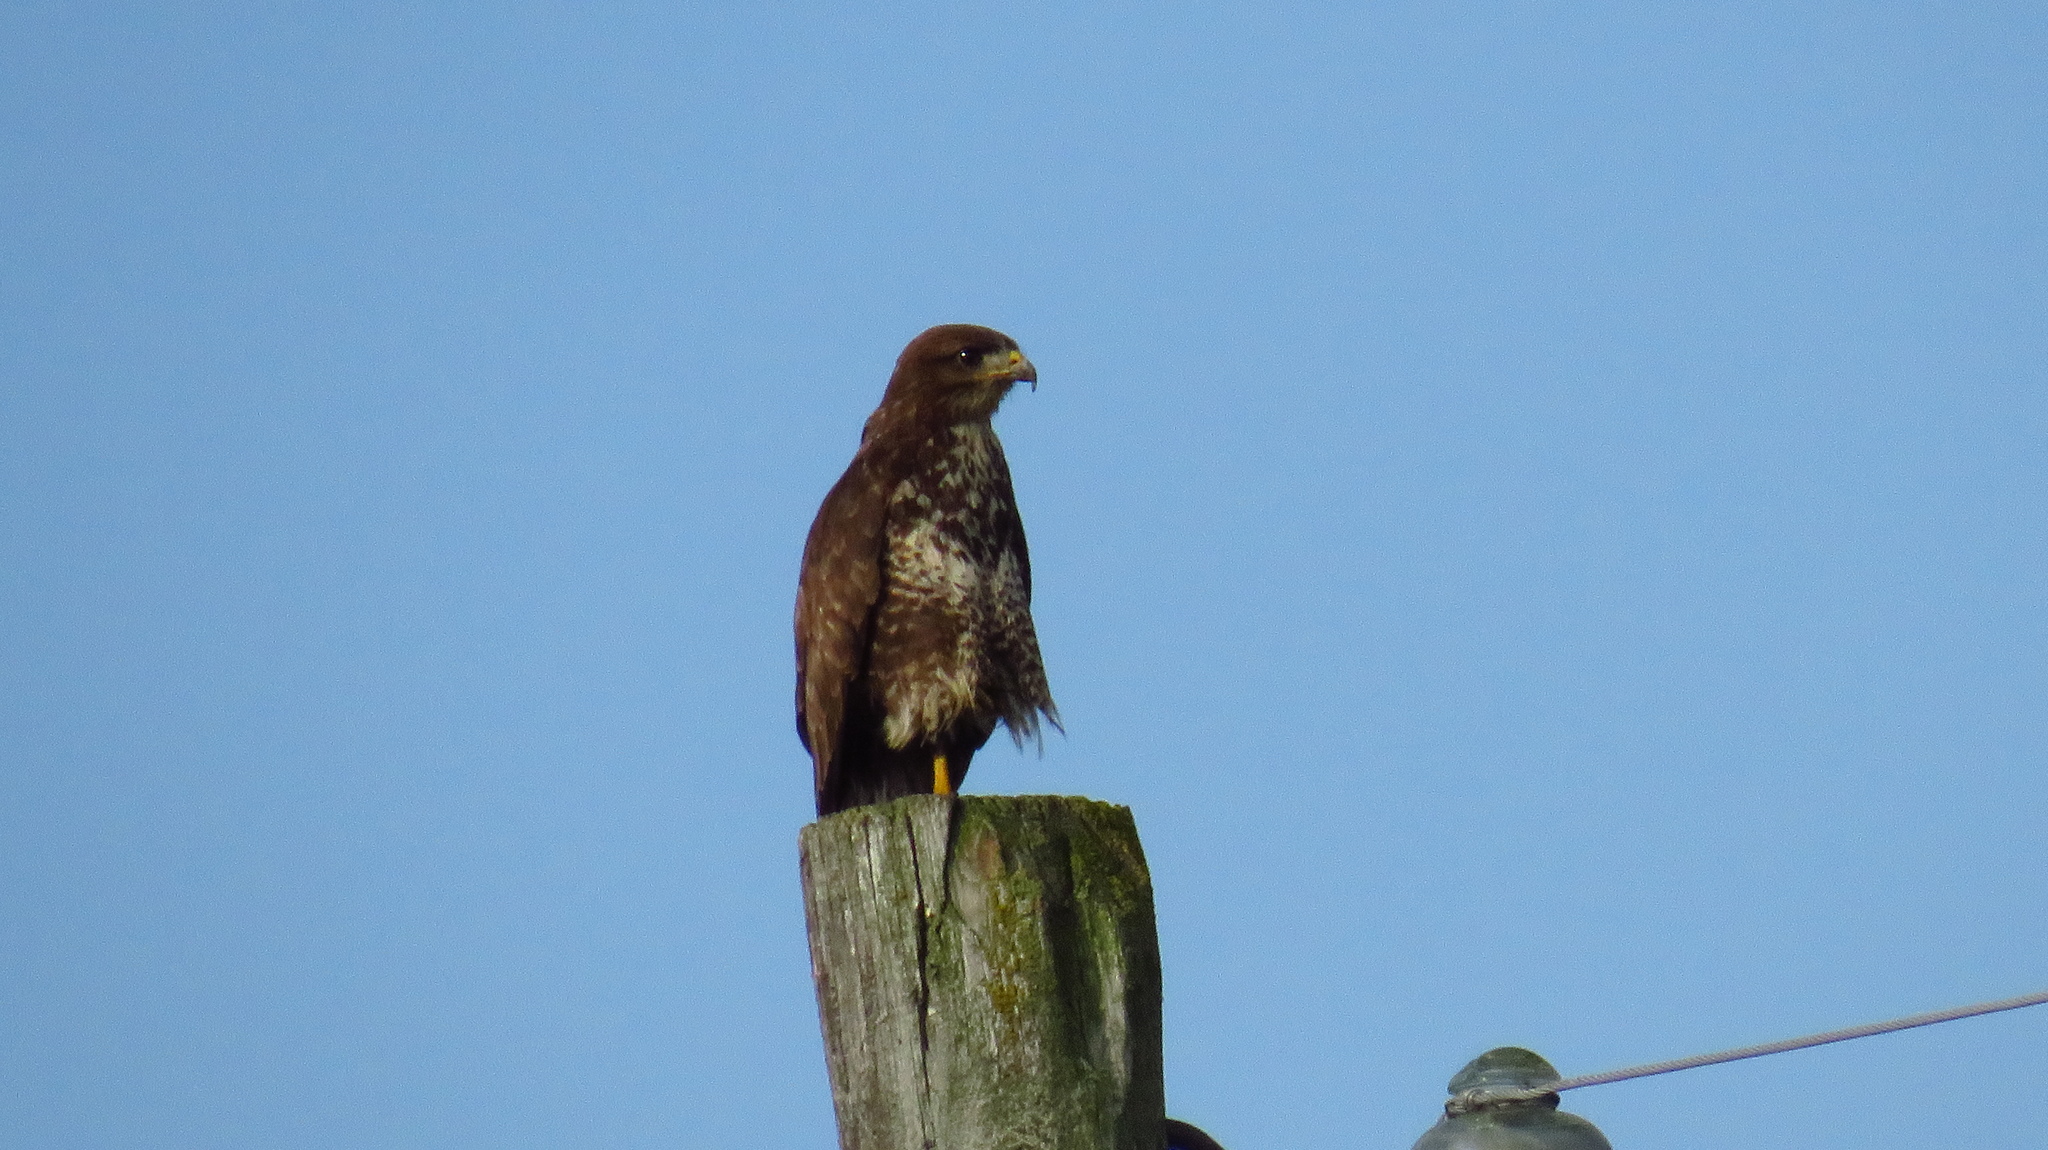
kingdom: Animalia
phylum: Chordata
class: Aves
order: Accipitriformes
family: Accipitridae
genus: Buteo
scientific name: Buteo buteo
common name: Common buzzard
